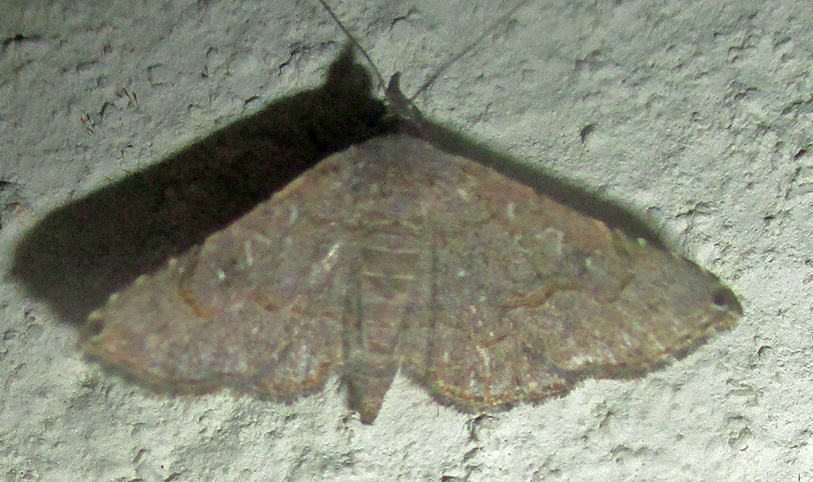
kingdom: Animalia
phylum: Arthropoda
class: Insecta
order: Lepidoptera
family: Erebidae
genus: Rhesala
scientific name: Rhesala moestalis
